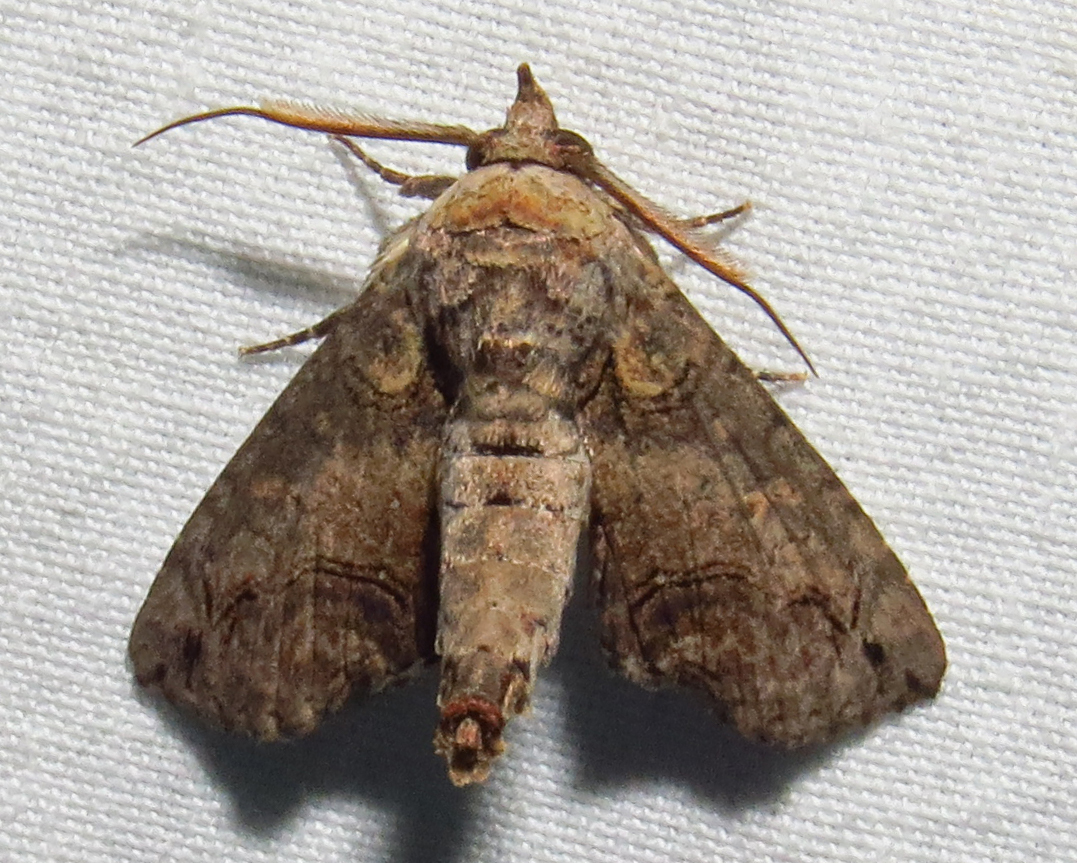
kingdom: Animalia
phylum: Arthropoda
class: Insecta
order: Lepidoptera
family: Euteliidae
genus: Paectes
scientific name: Paectes abrostoloides
